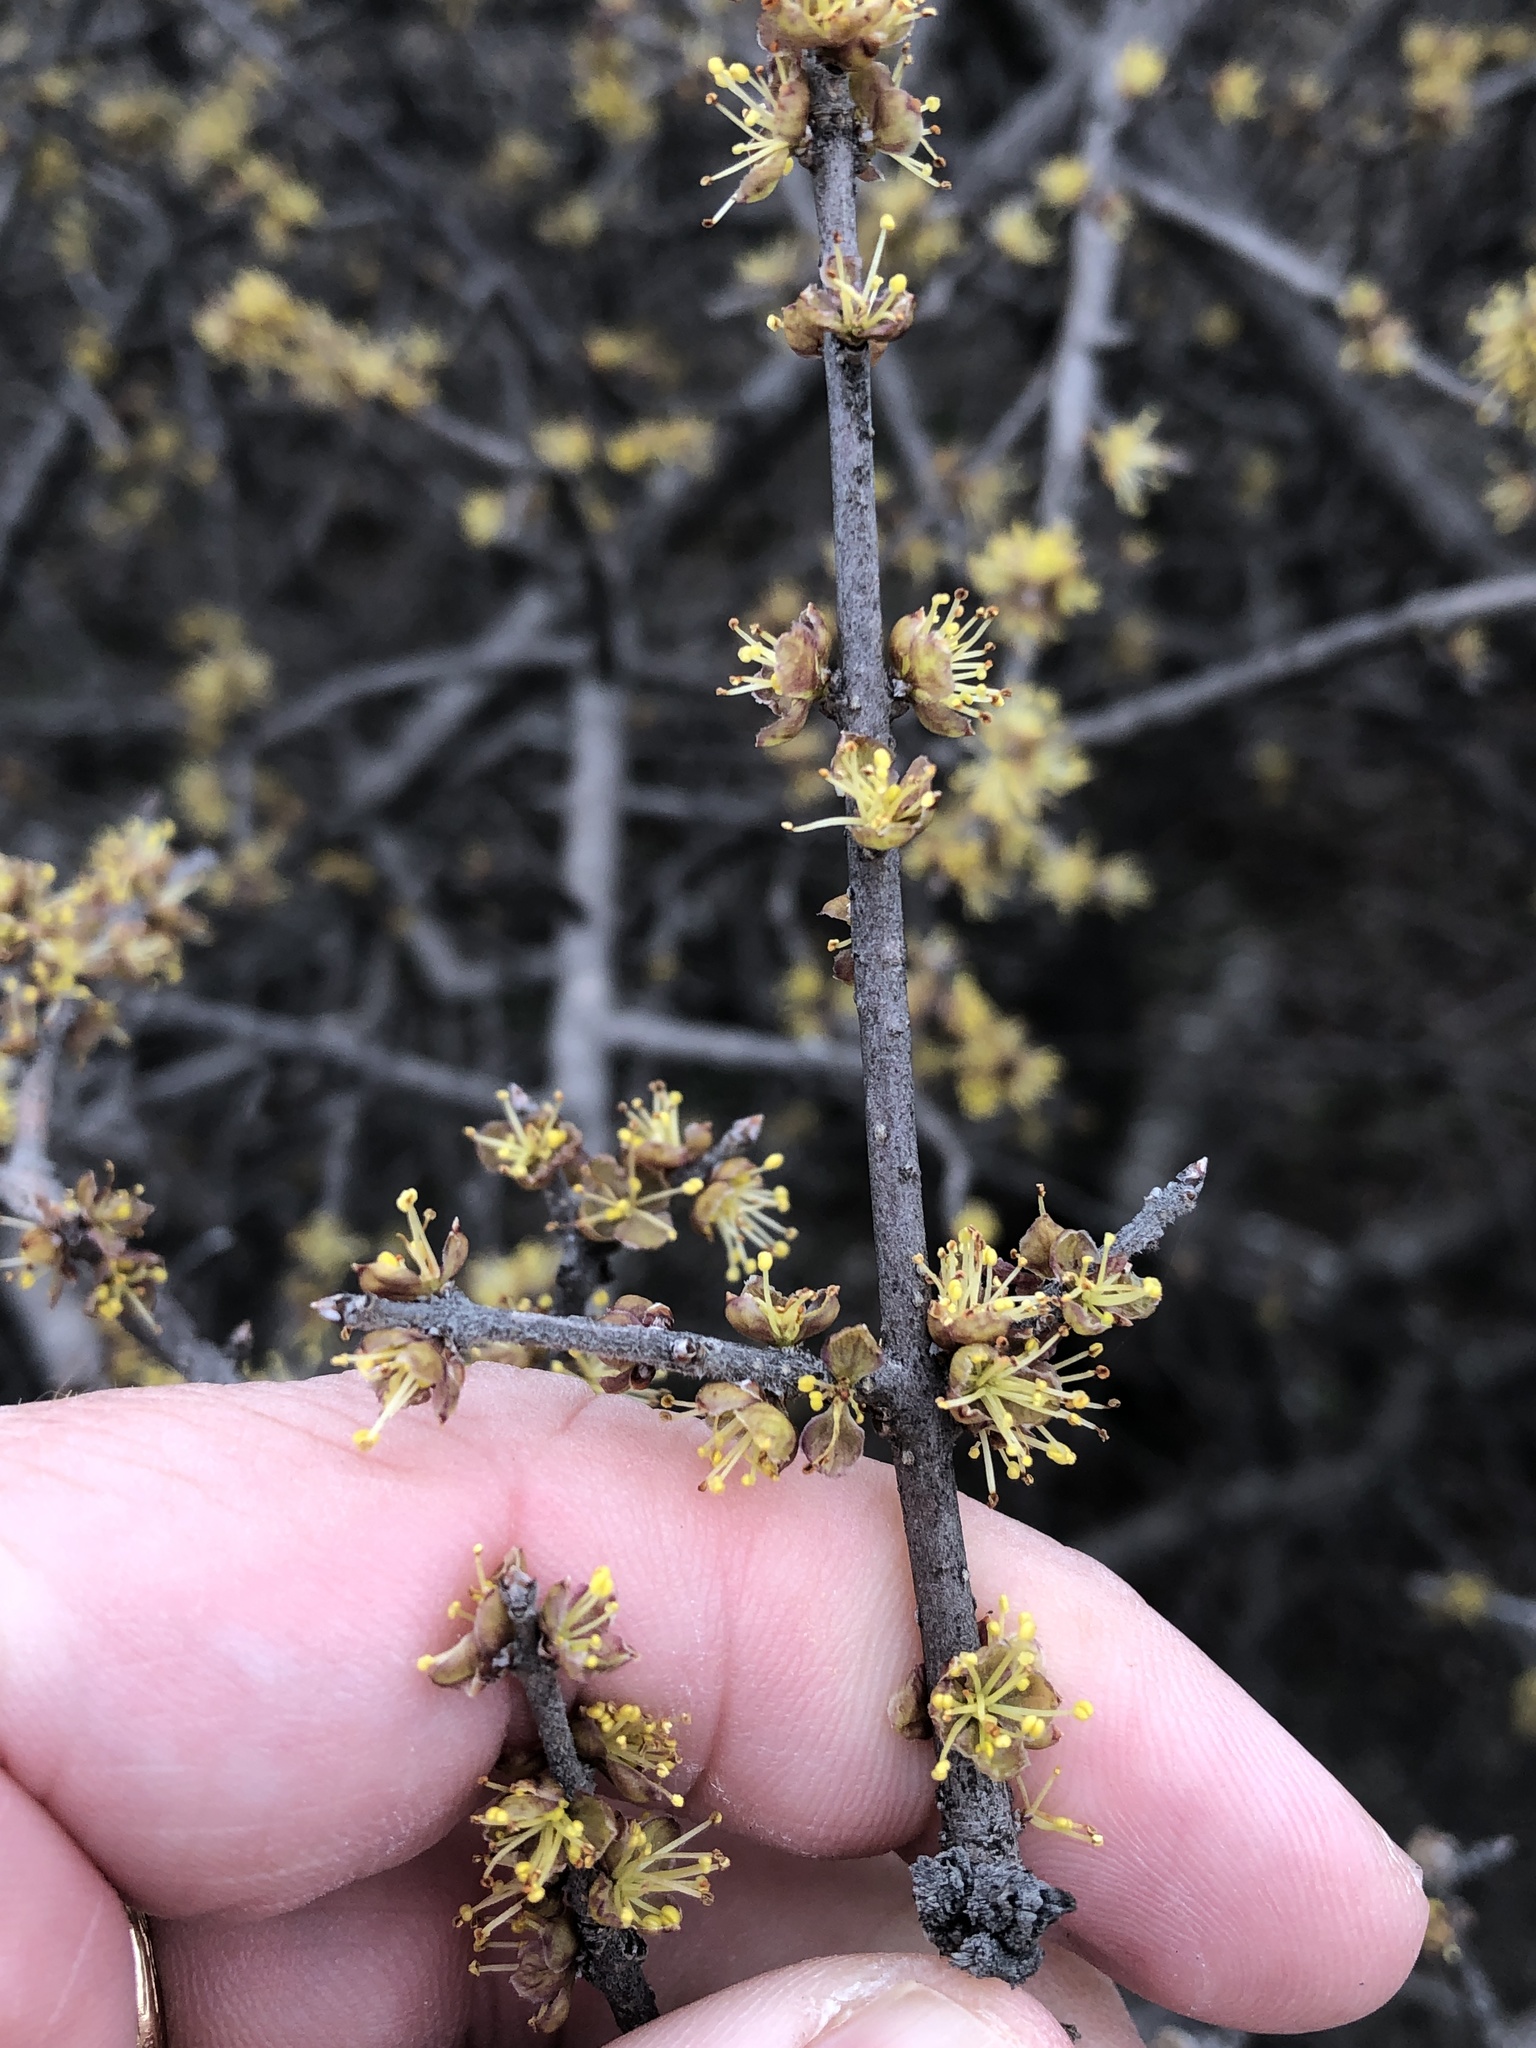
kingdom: Plantae
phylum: Tracheophyta
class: Magnoliopsida
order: Lamiales
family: Oleaceae
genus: Forestiera
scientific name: Forestiera pubescens
